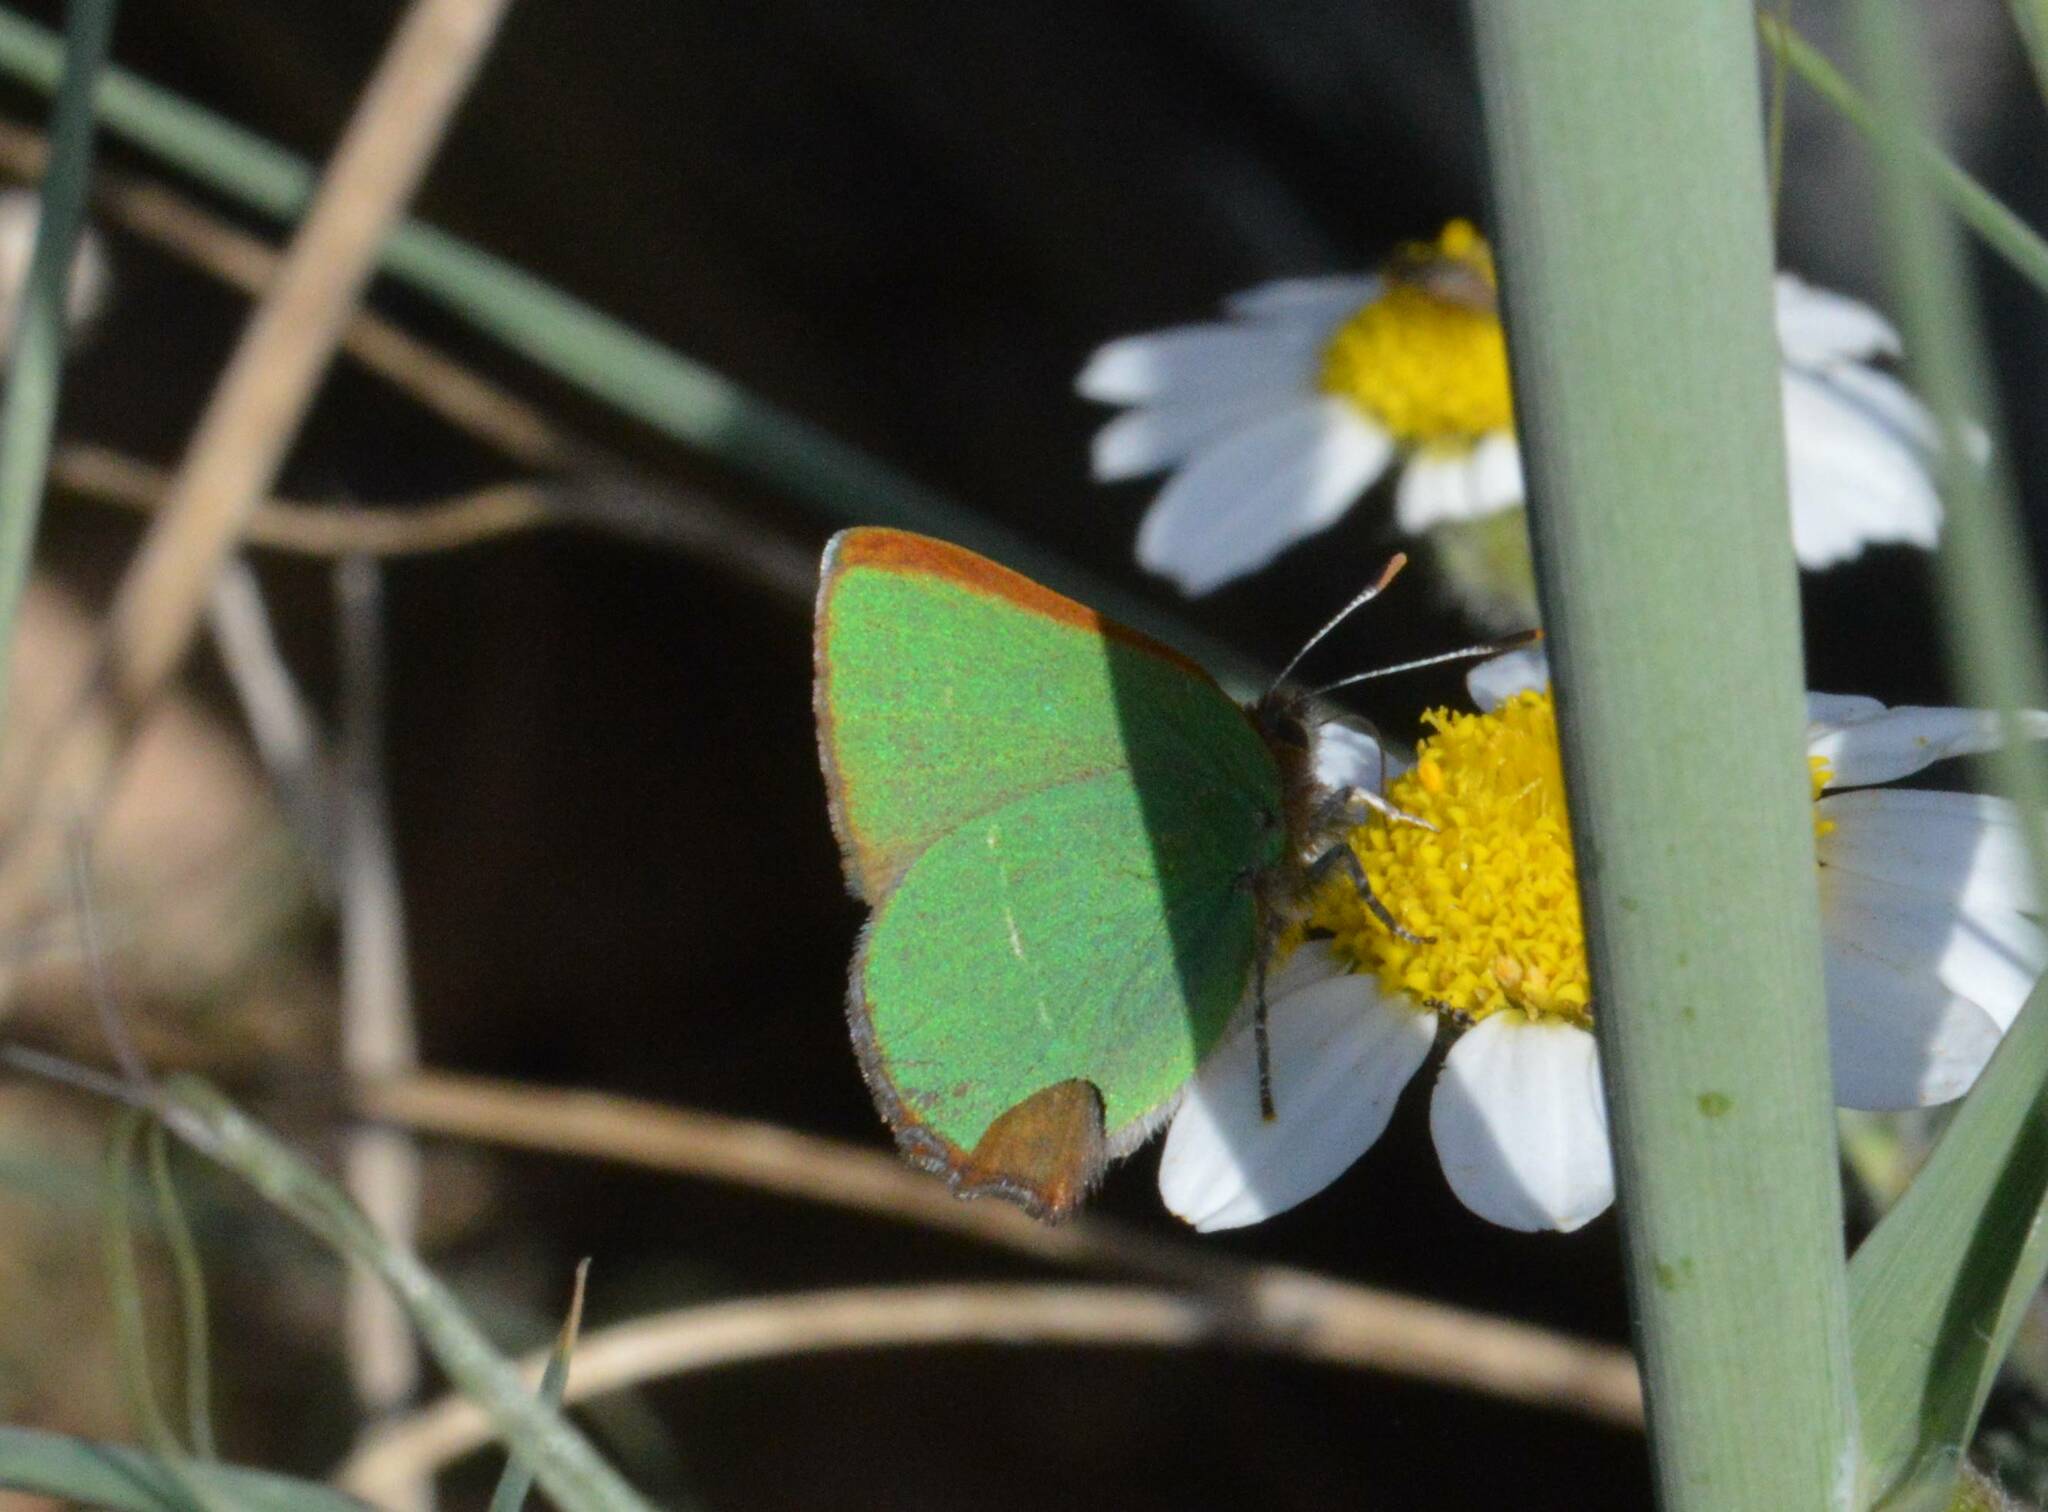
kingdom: Animalia
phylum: Arthropoda
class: Insecta
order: Lepidoptera
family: Lycaenidae
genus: Callophrys
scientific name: Callophrys avis
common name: Chapman's green hairstreak
